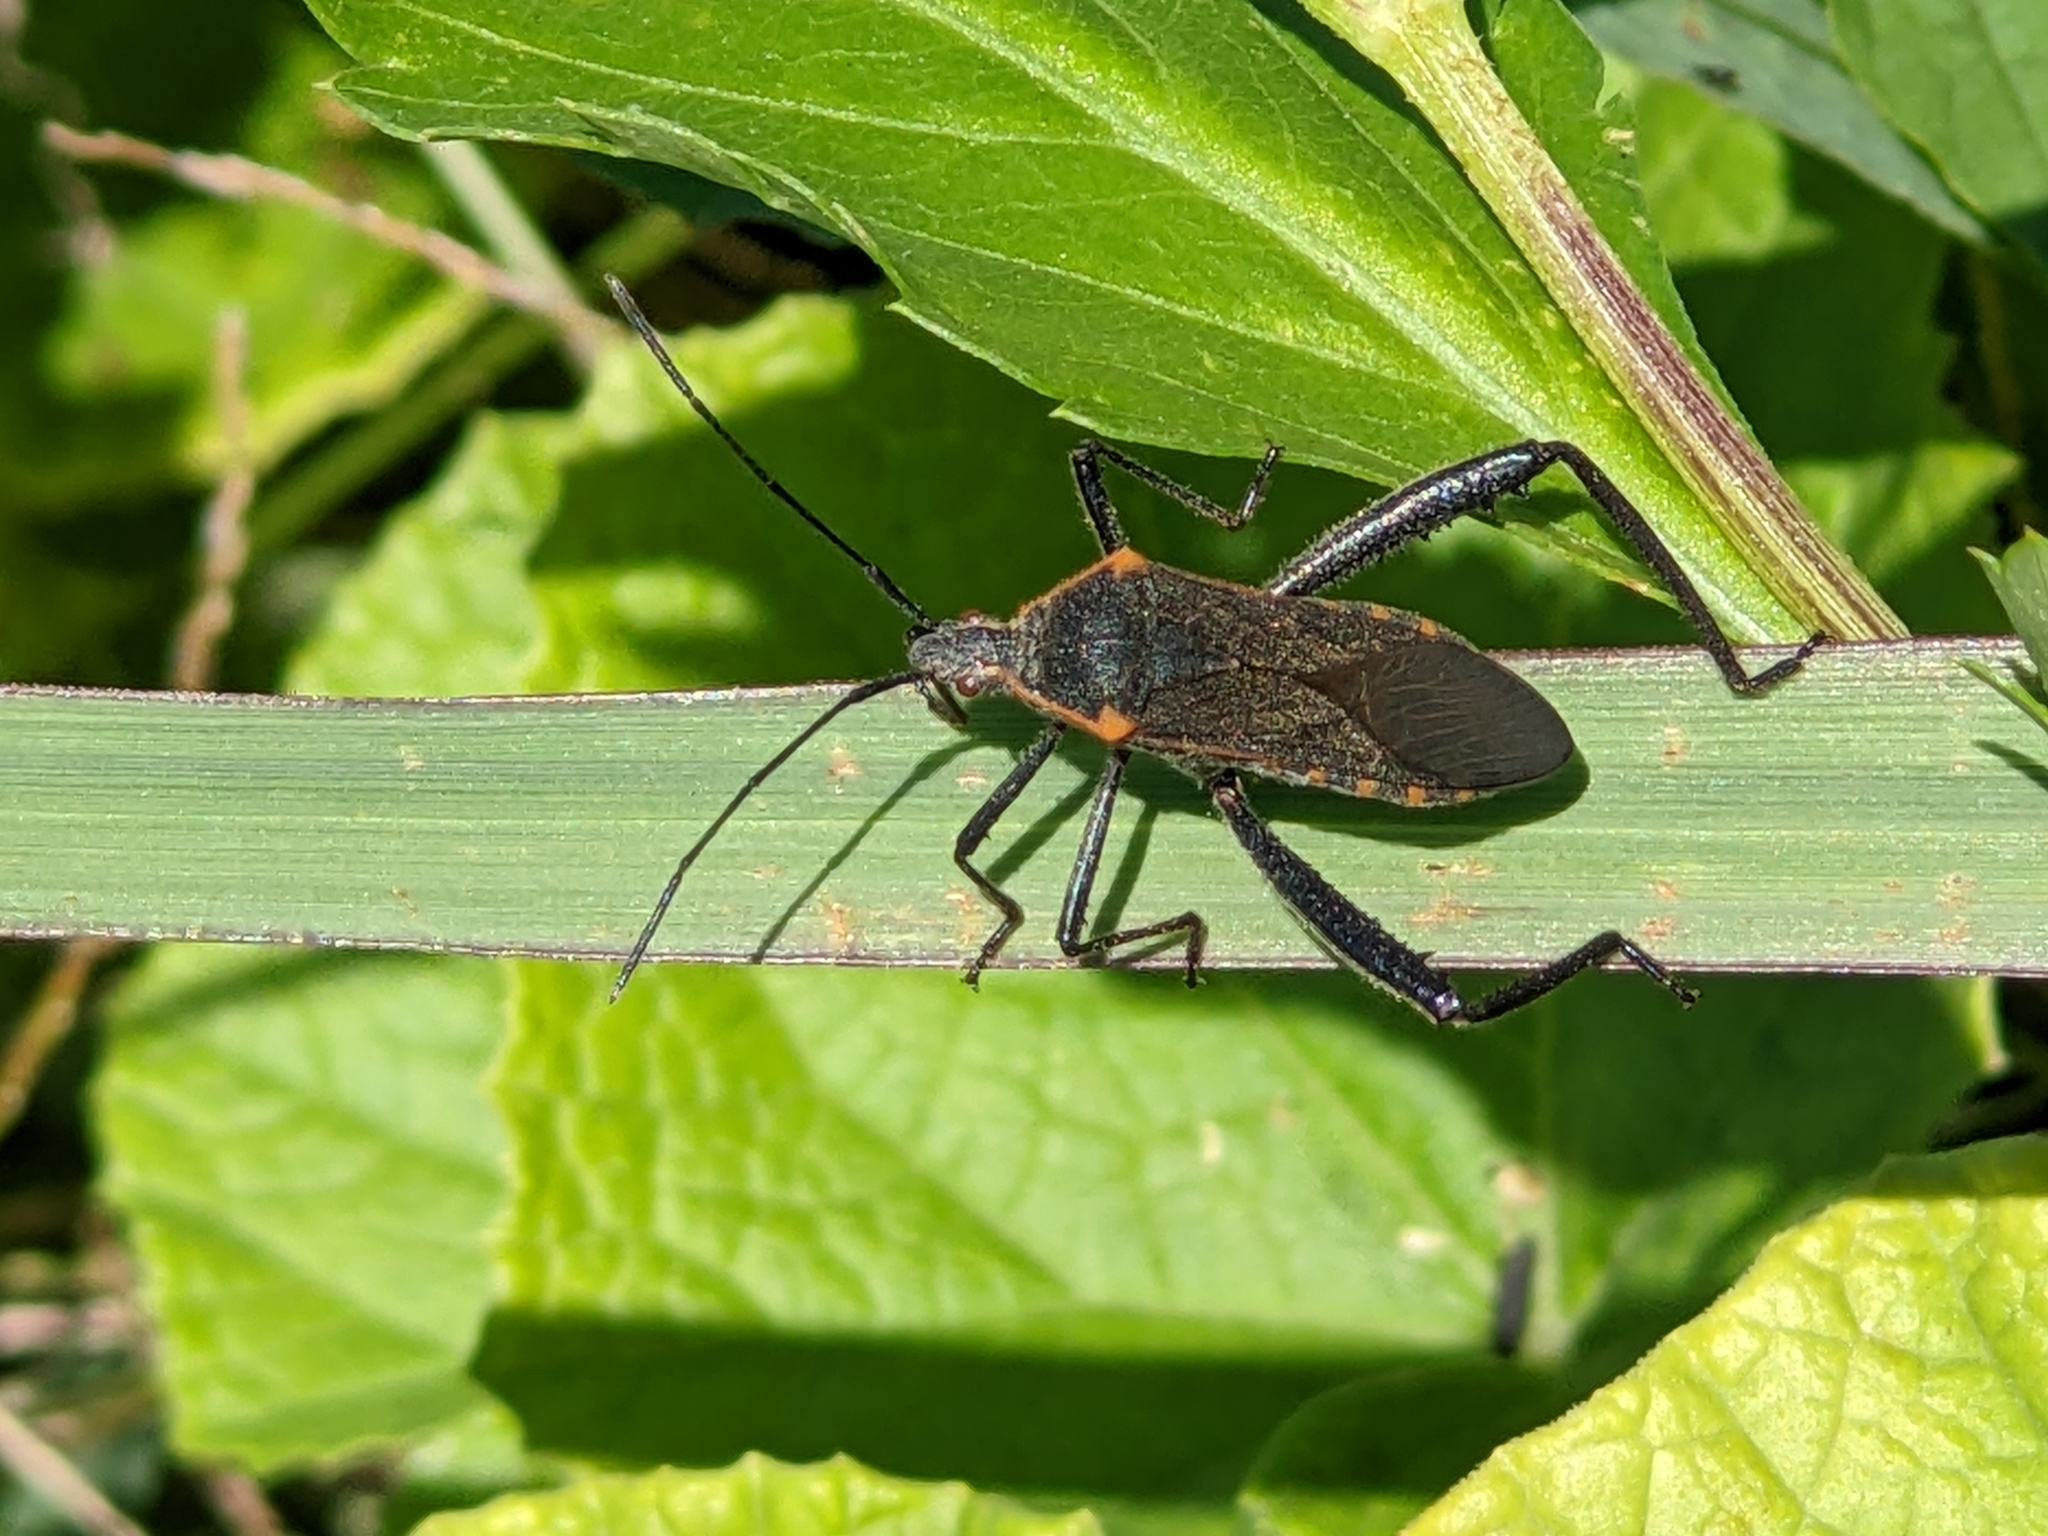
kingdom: Animalia
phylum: Arthropoda
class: Insecta
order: Hemiptera
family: Coreidae
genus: Phthiacnemia
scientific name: Phthiacnemia picta
